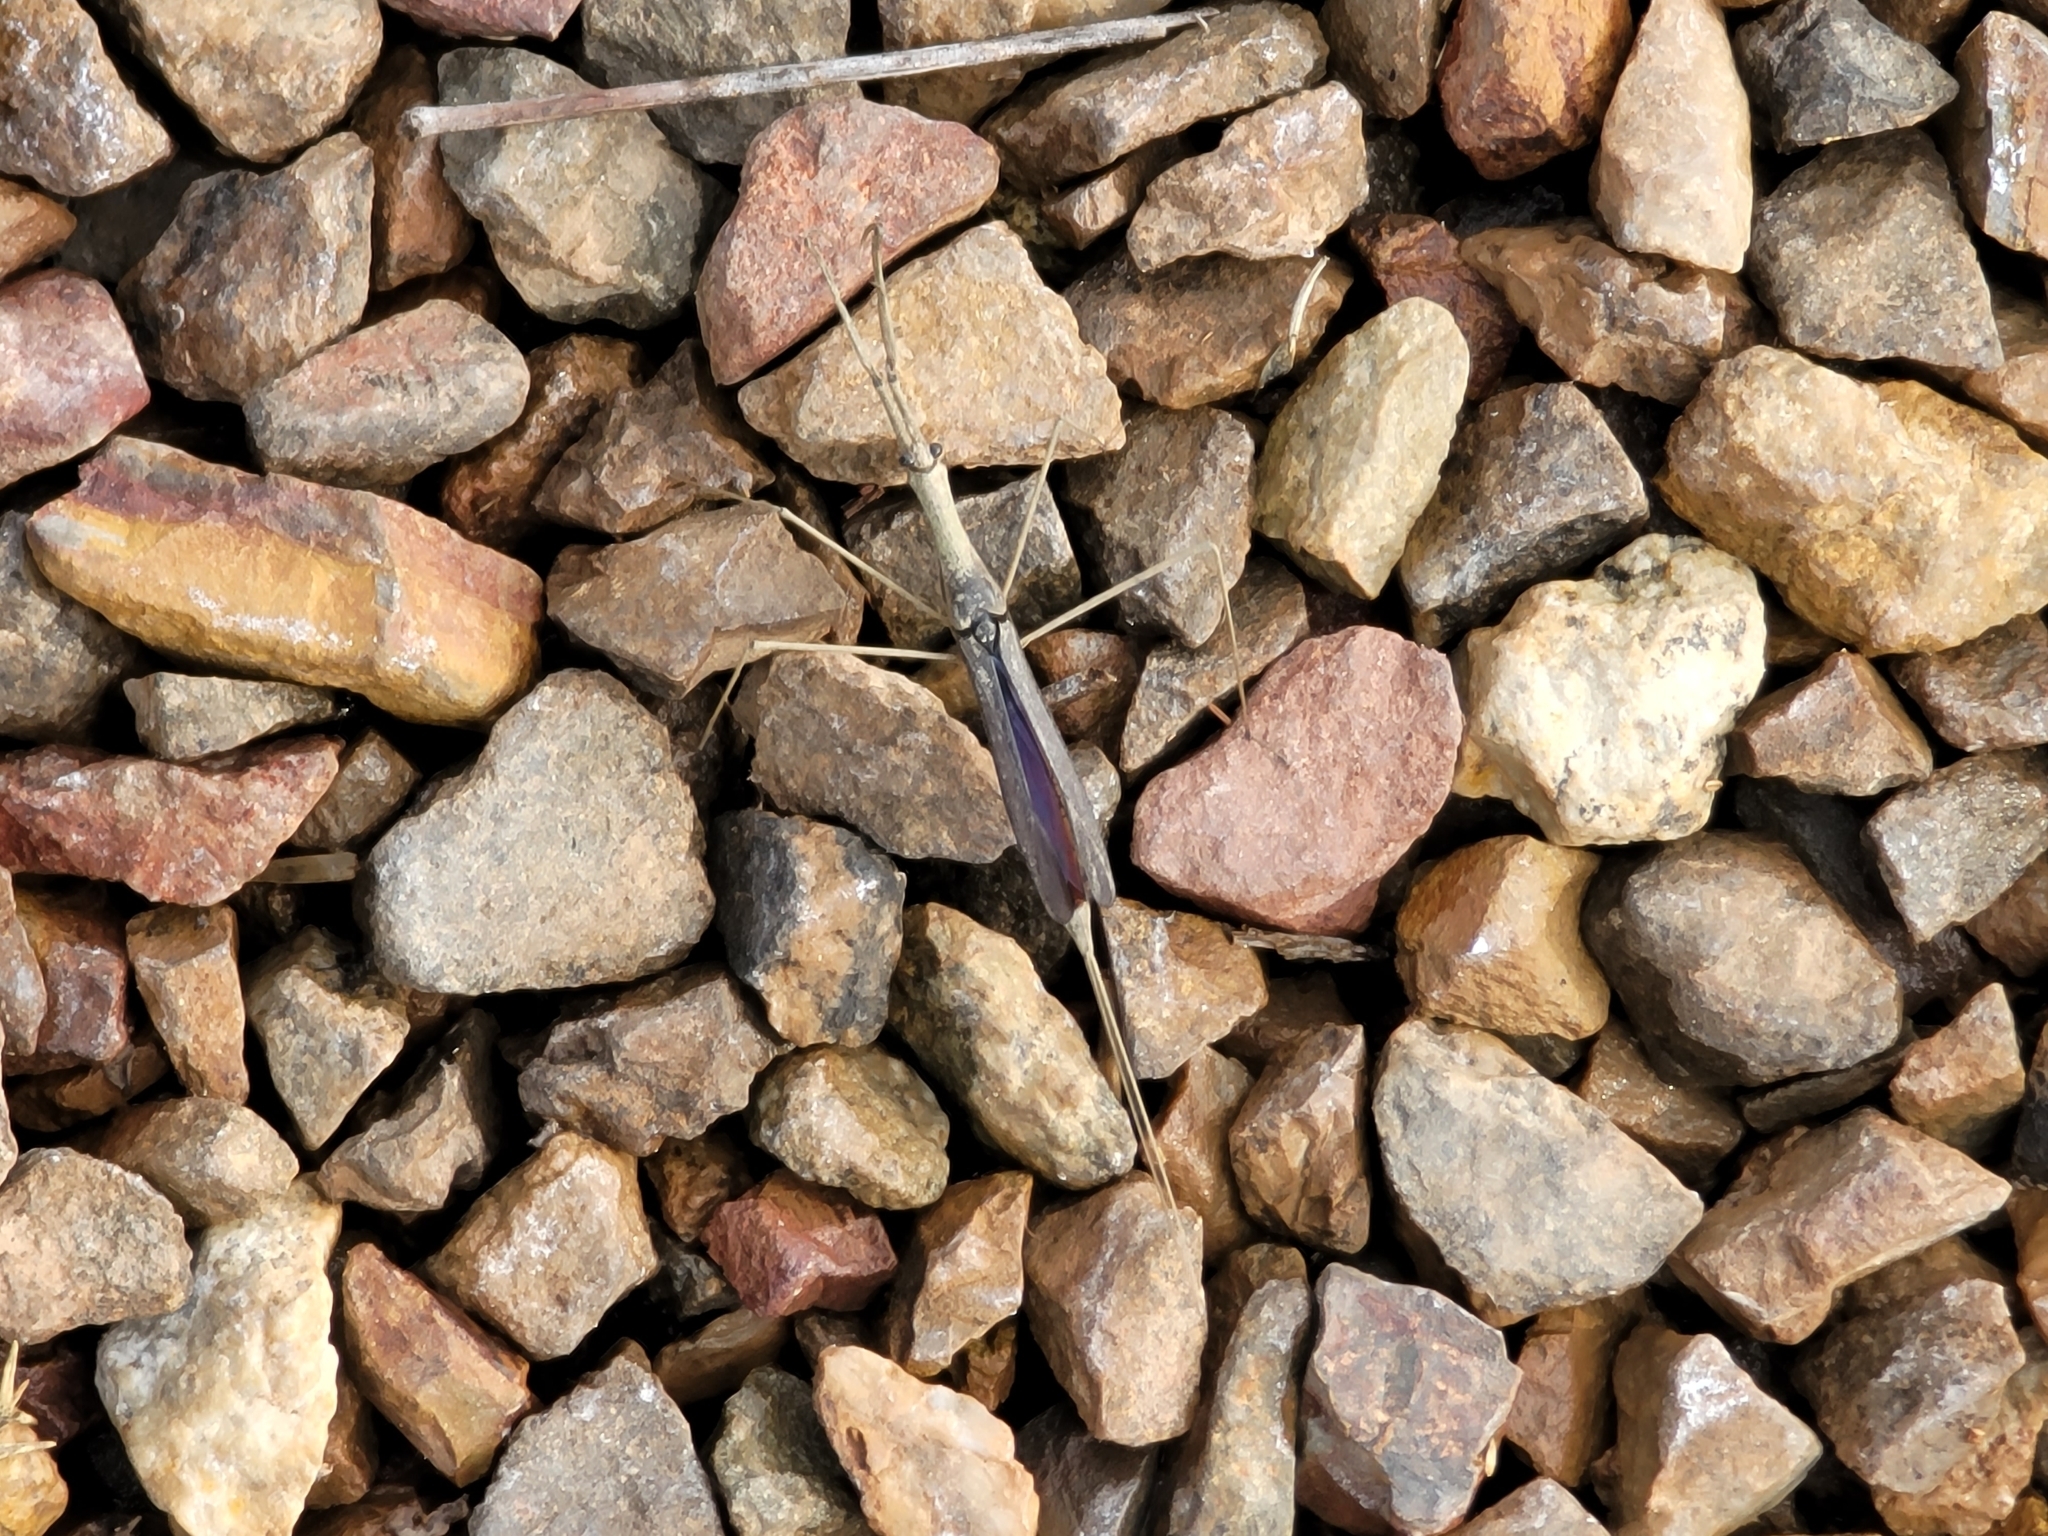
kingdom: Animalia
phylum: Arthropoda
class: Insecta
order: Hemiptera
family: Nepidae
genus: Ranatra
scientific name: Ranatra quadridentata
